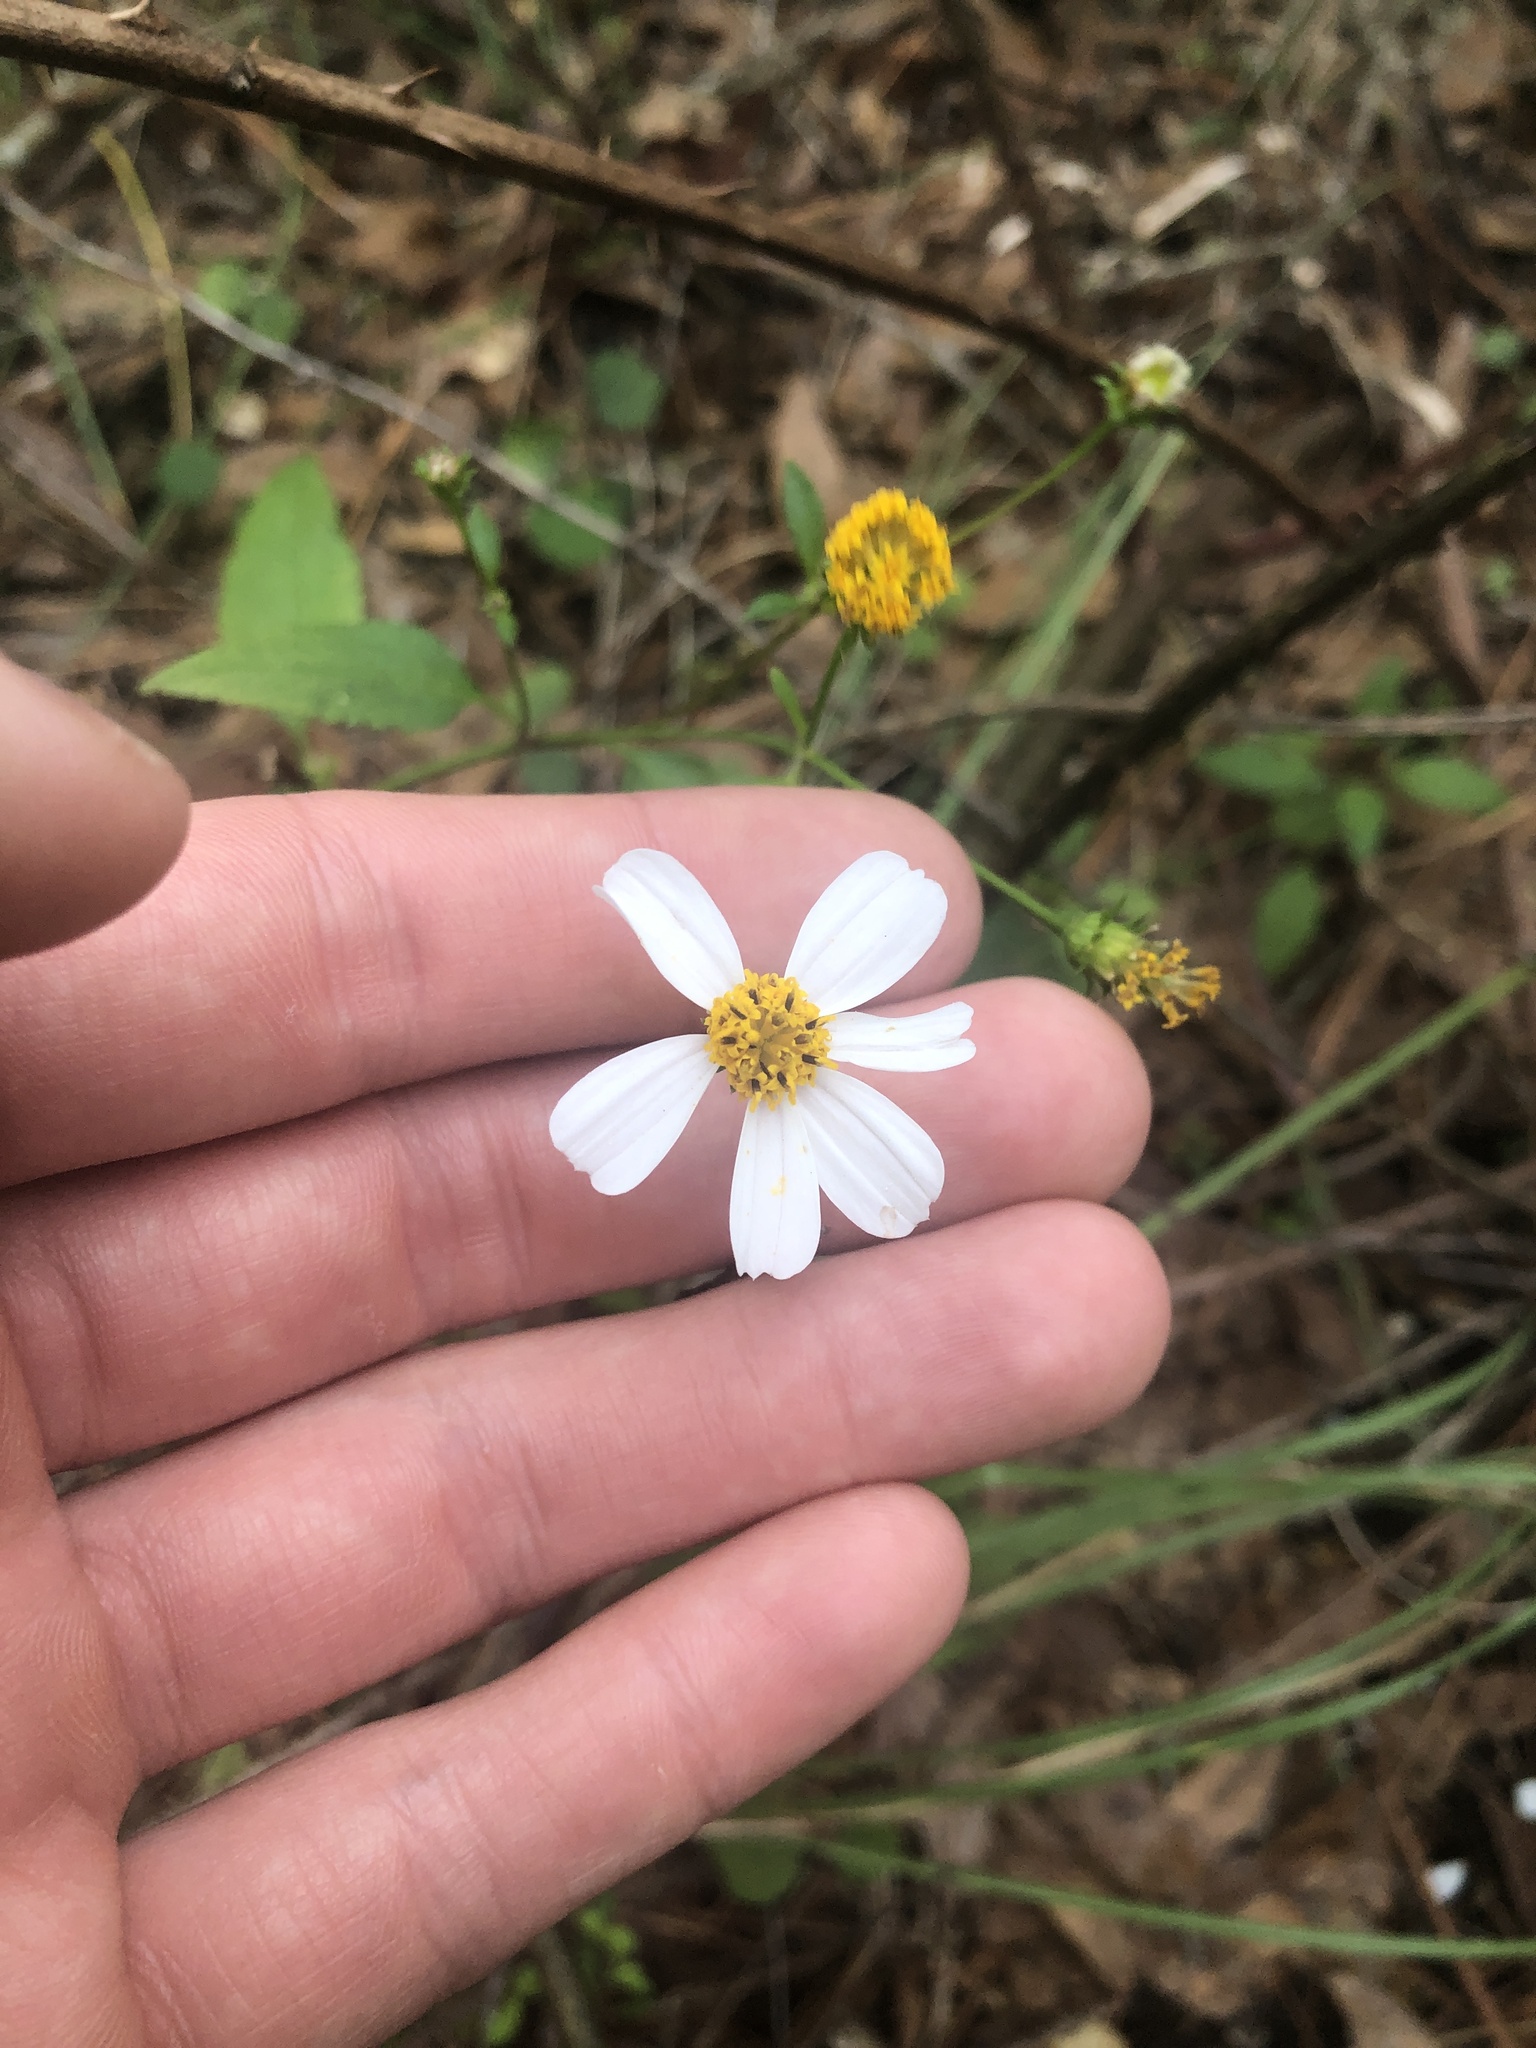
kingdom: Plantae
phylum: Tracheophyta
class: Magnoliopsida
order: Asterales
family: Asteraceae
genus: Bidens
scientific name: Bidens alba
